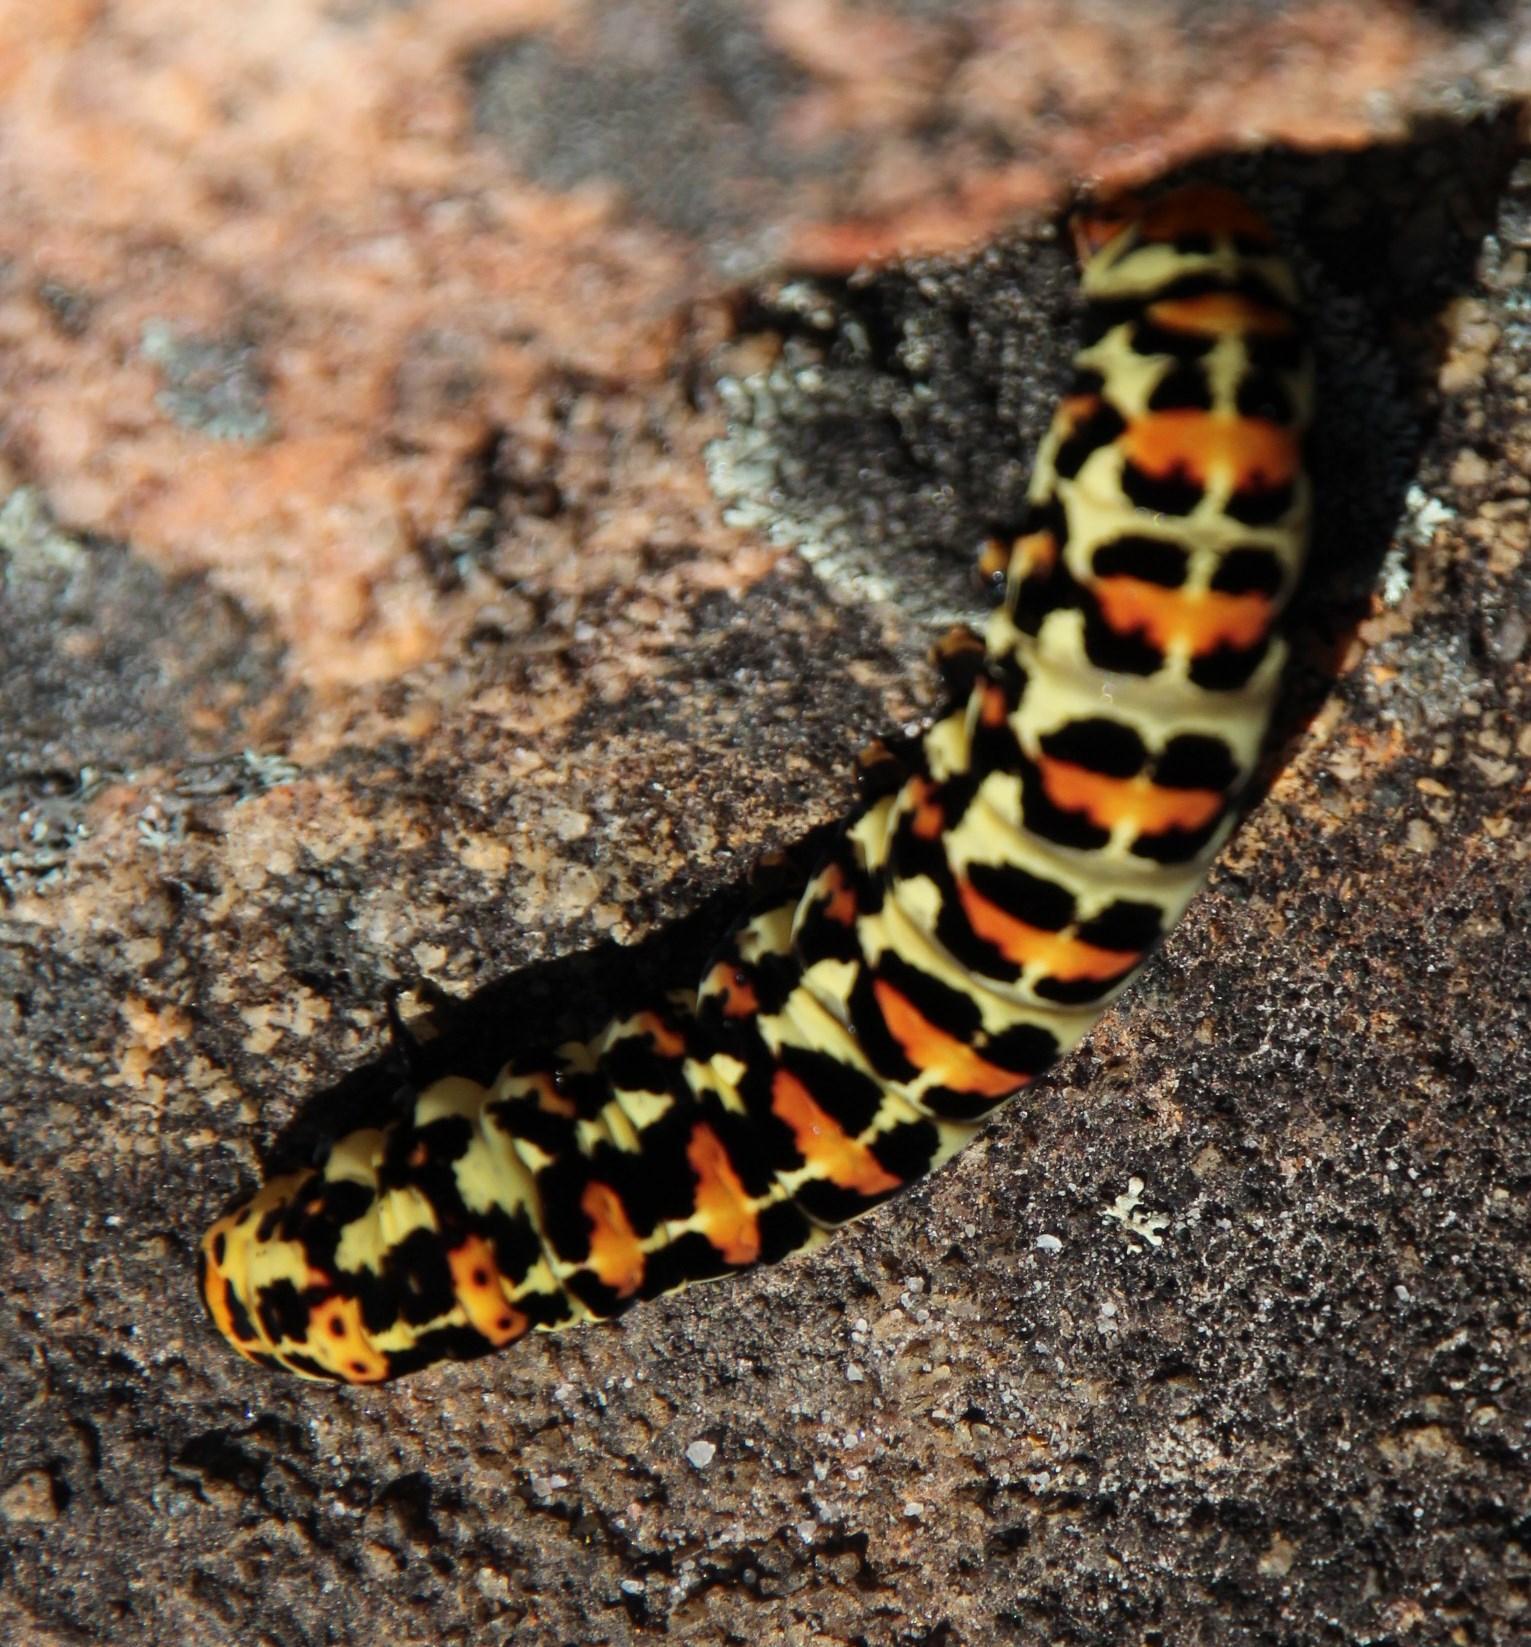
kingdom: Animalia
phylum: Arthropoda
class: Insecta
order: Lepidoptera
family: Noctuidae
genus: Diaphone
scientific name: Diaphone eumela
